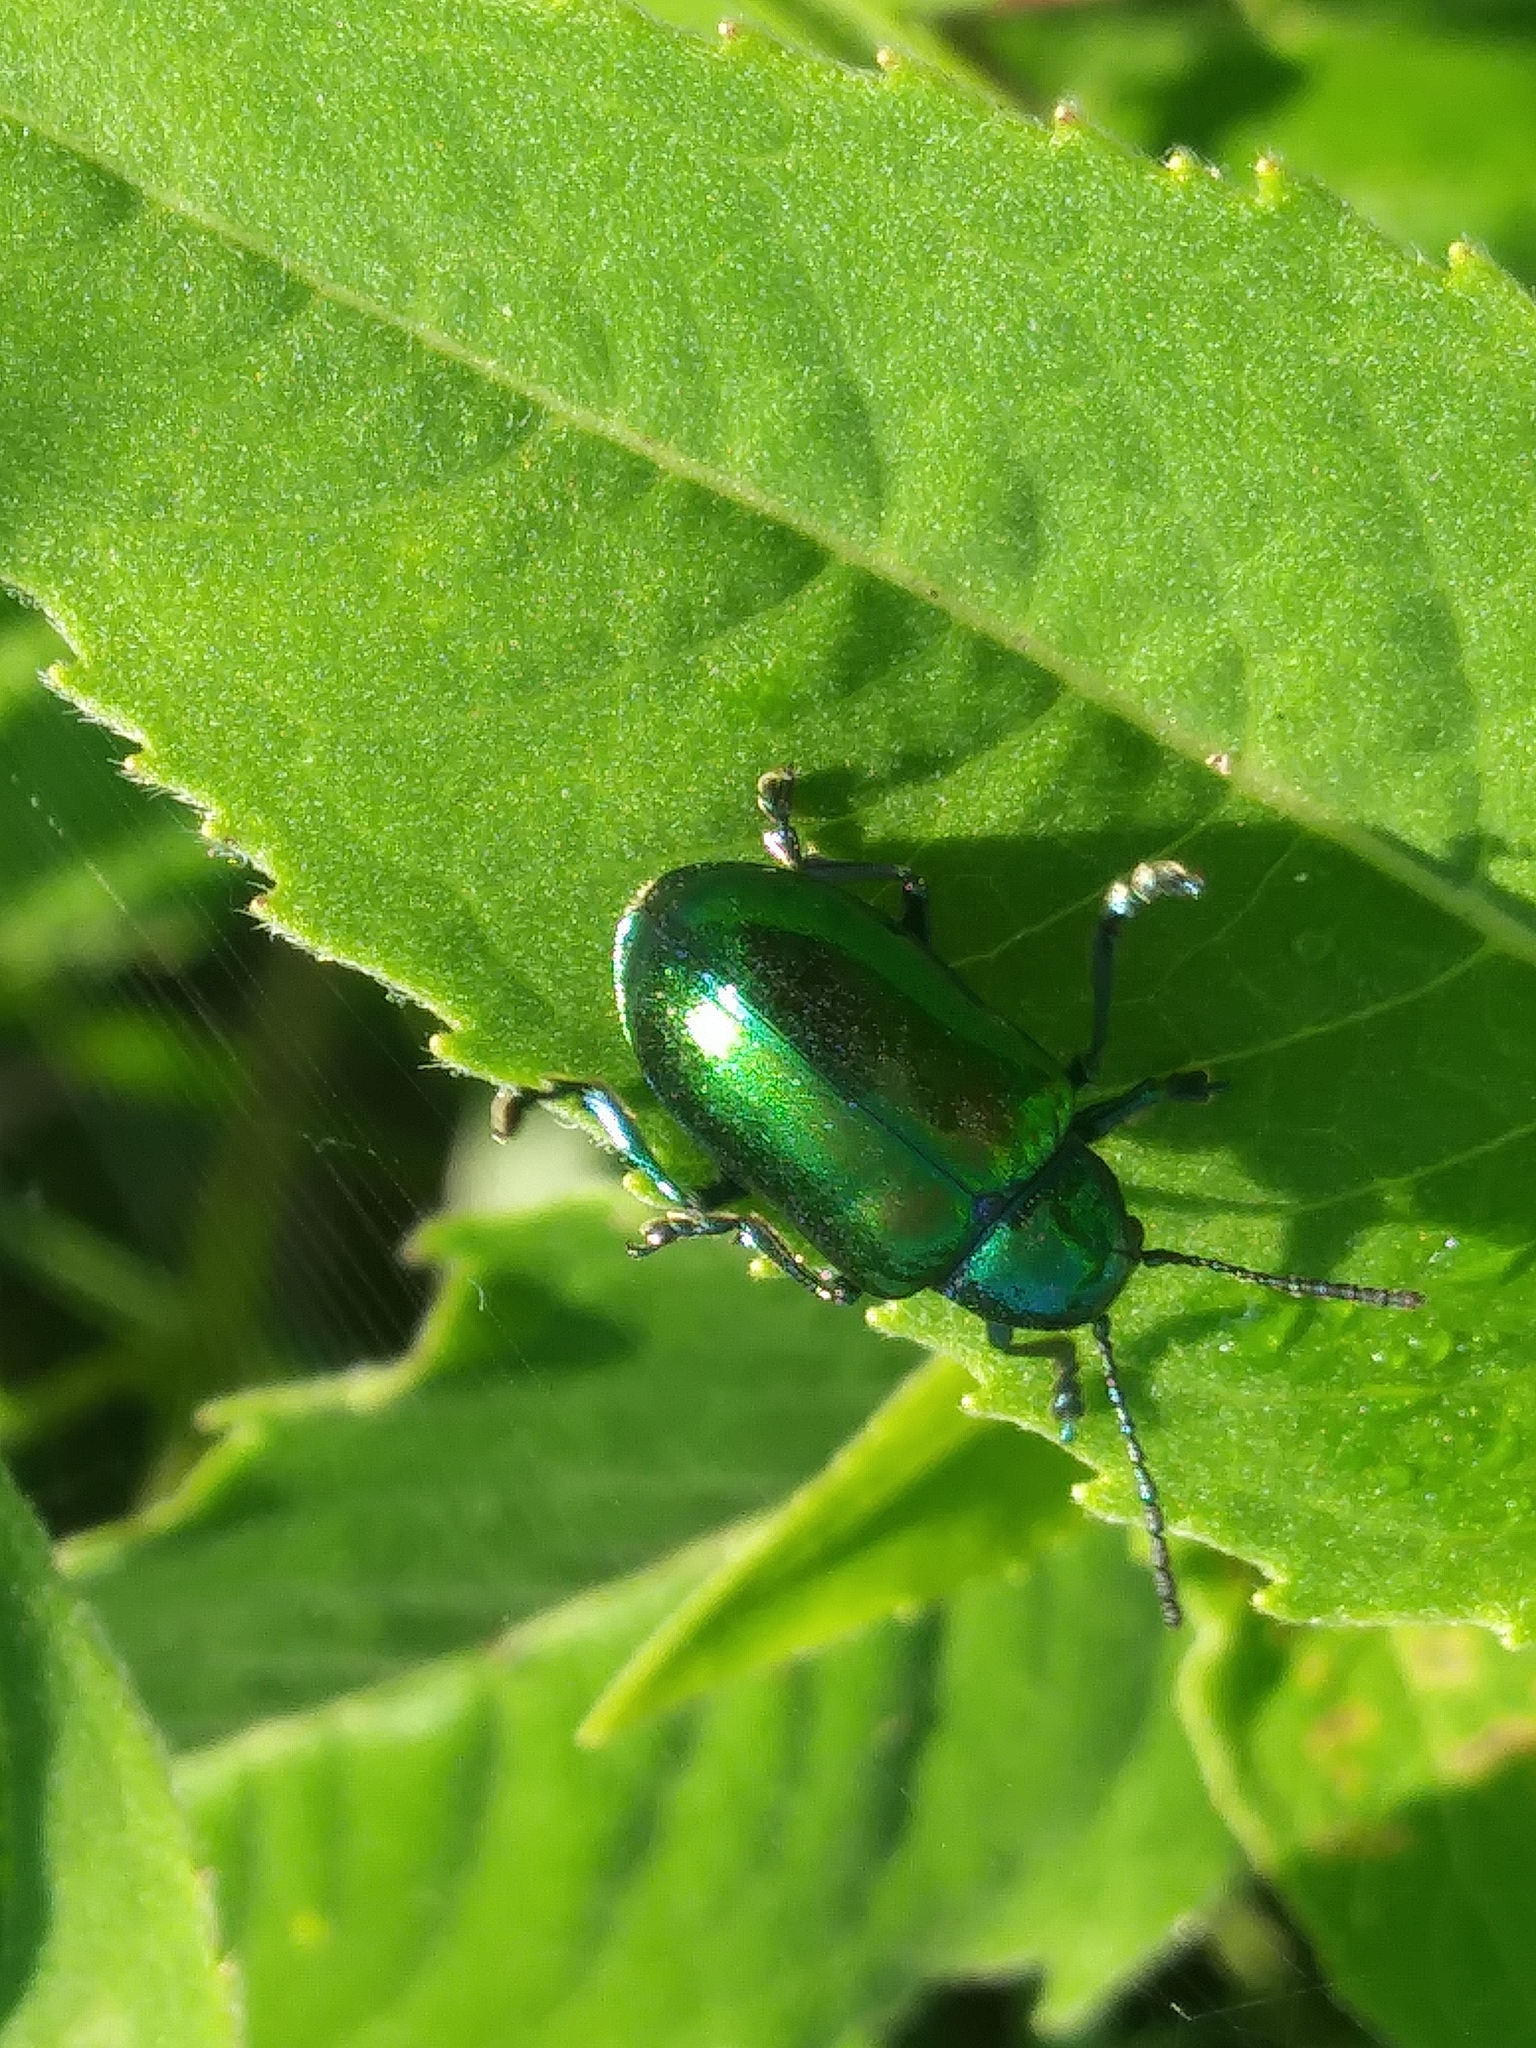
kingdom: Animalia
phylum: Arthropoda
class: Insecta
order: Coleoptera
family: Chrysomelidae
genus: Chrysochus
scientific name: Chrysochus auratus
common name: Dogbane leaf beetle
